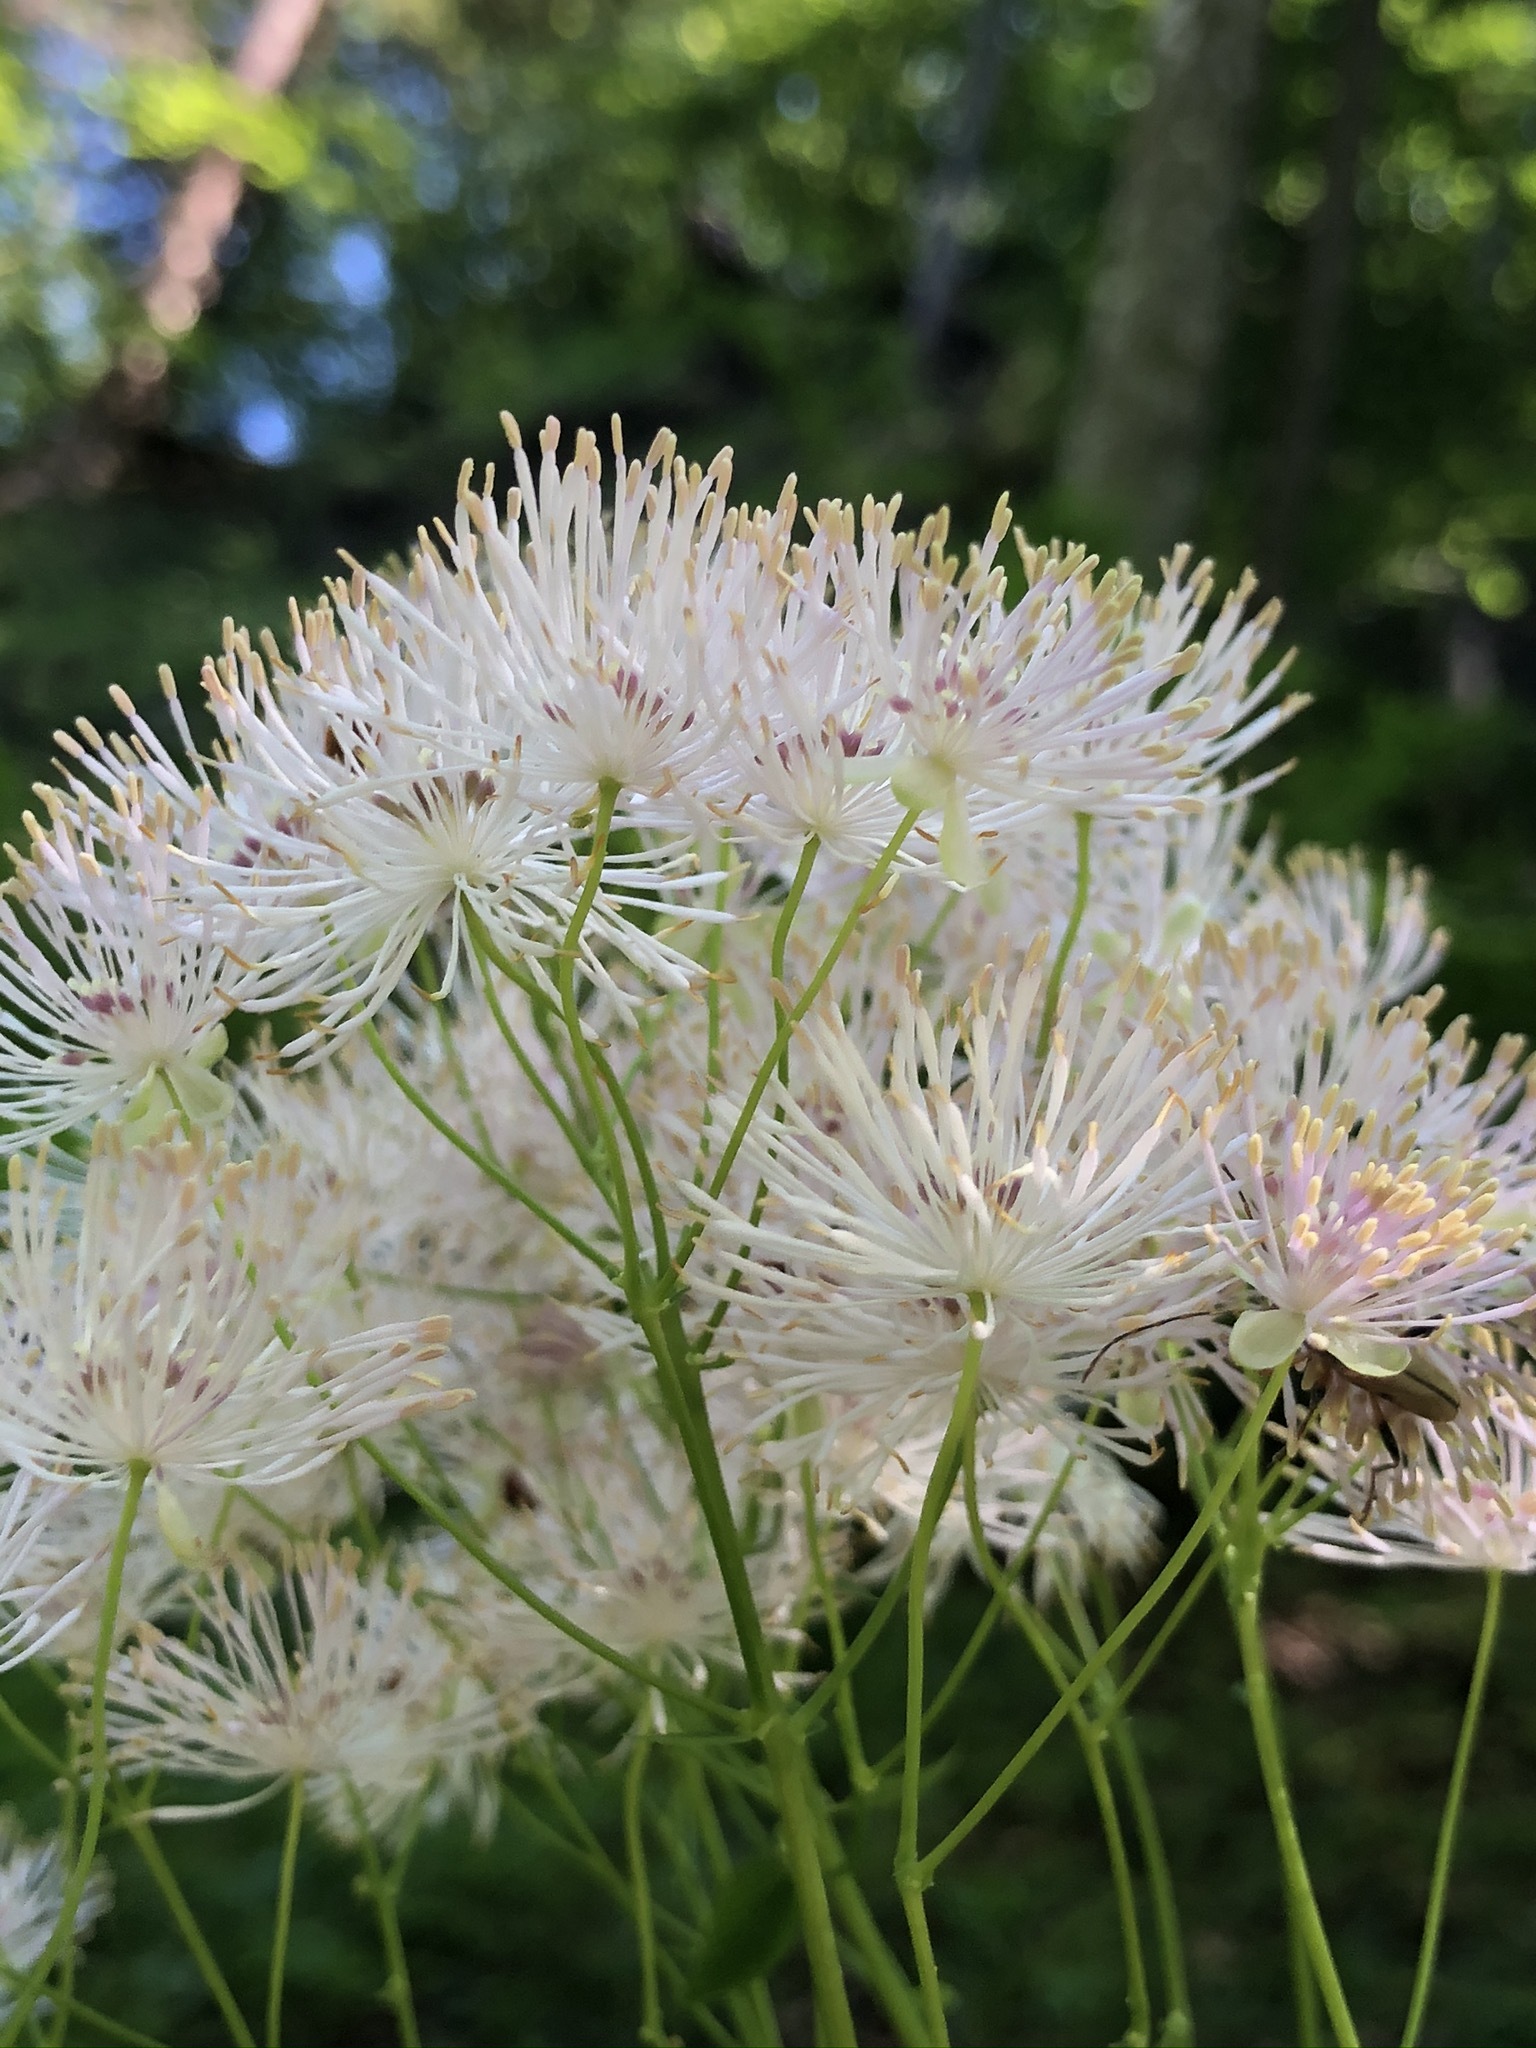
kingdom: Plantae
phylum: Tracheophyta
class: Magnoliopsida
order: Ranunculales
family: Ranunculaceae
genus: Thalictrum
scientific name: Thalictrum aquilegiifolium
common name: French meadow-rue
